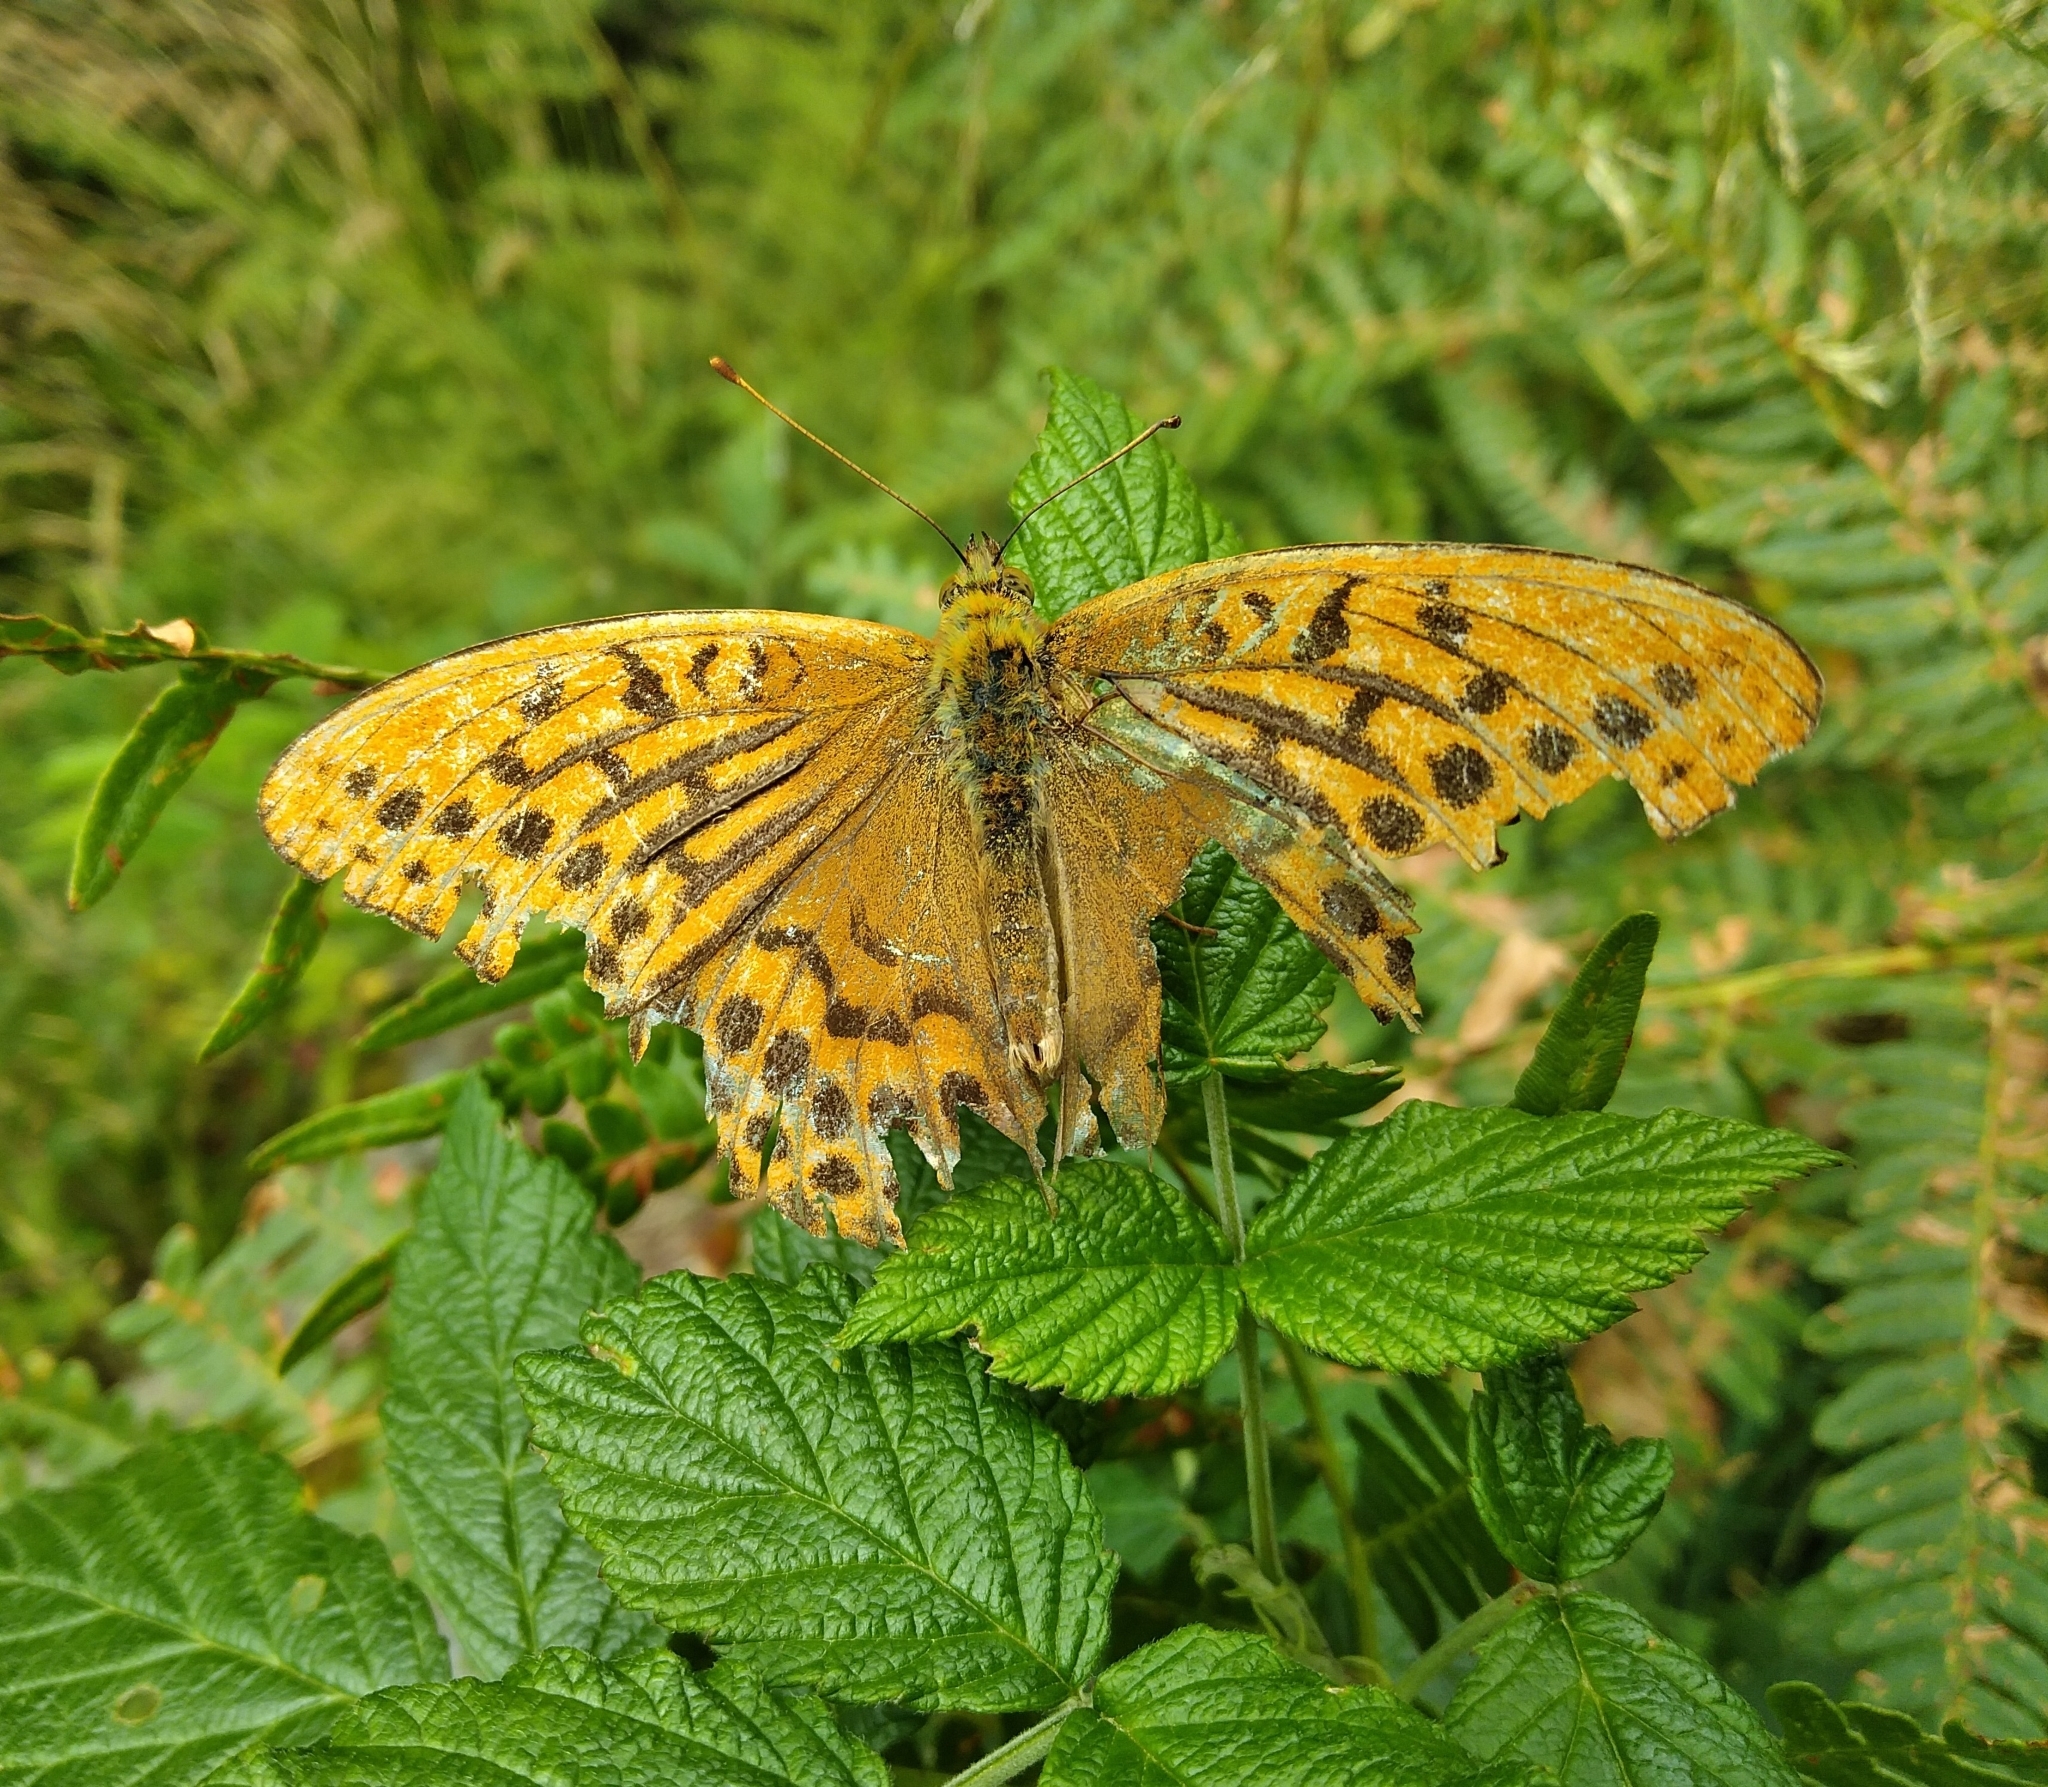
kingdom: Animalia
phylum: Arthropoda
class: Insecta
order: Lepidoptera
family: Nymphalidae
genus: Argynnis
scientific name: Argynnis paphia
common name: Silver-washed fritillary
